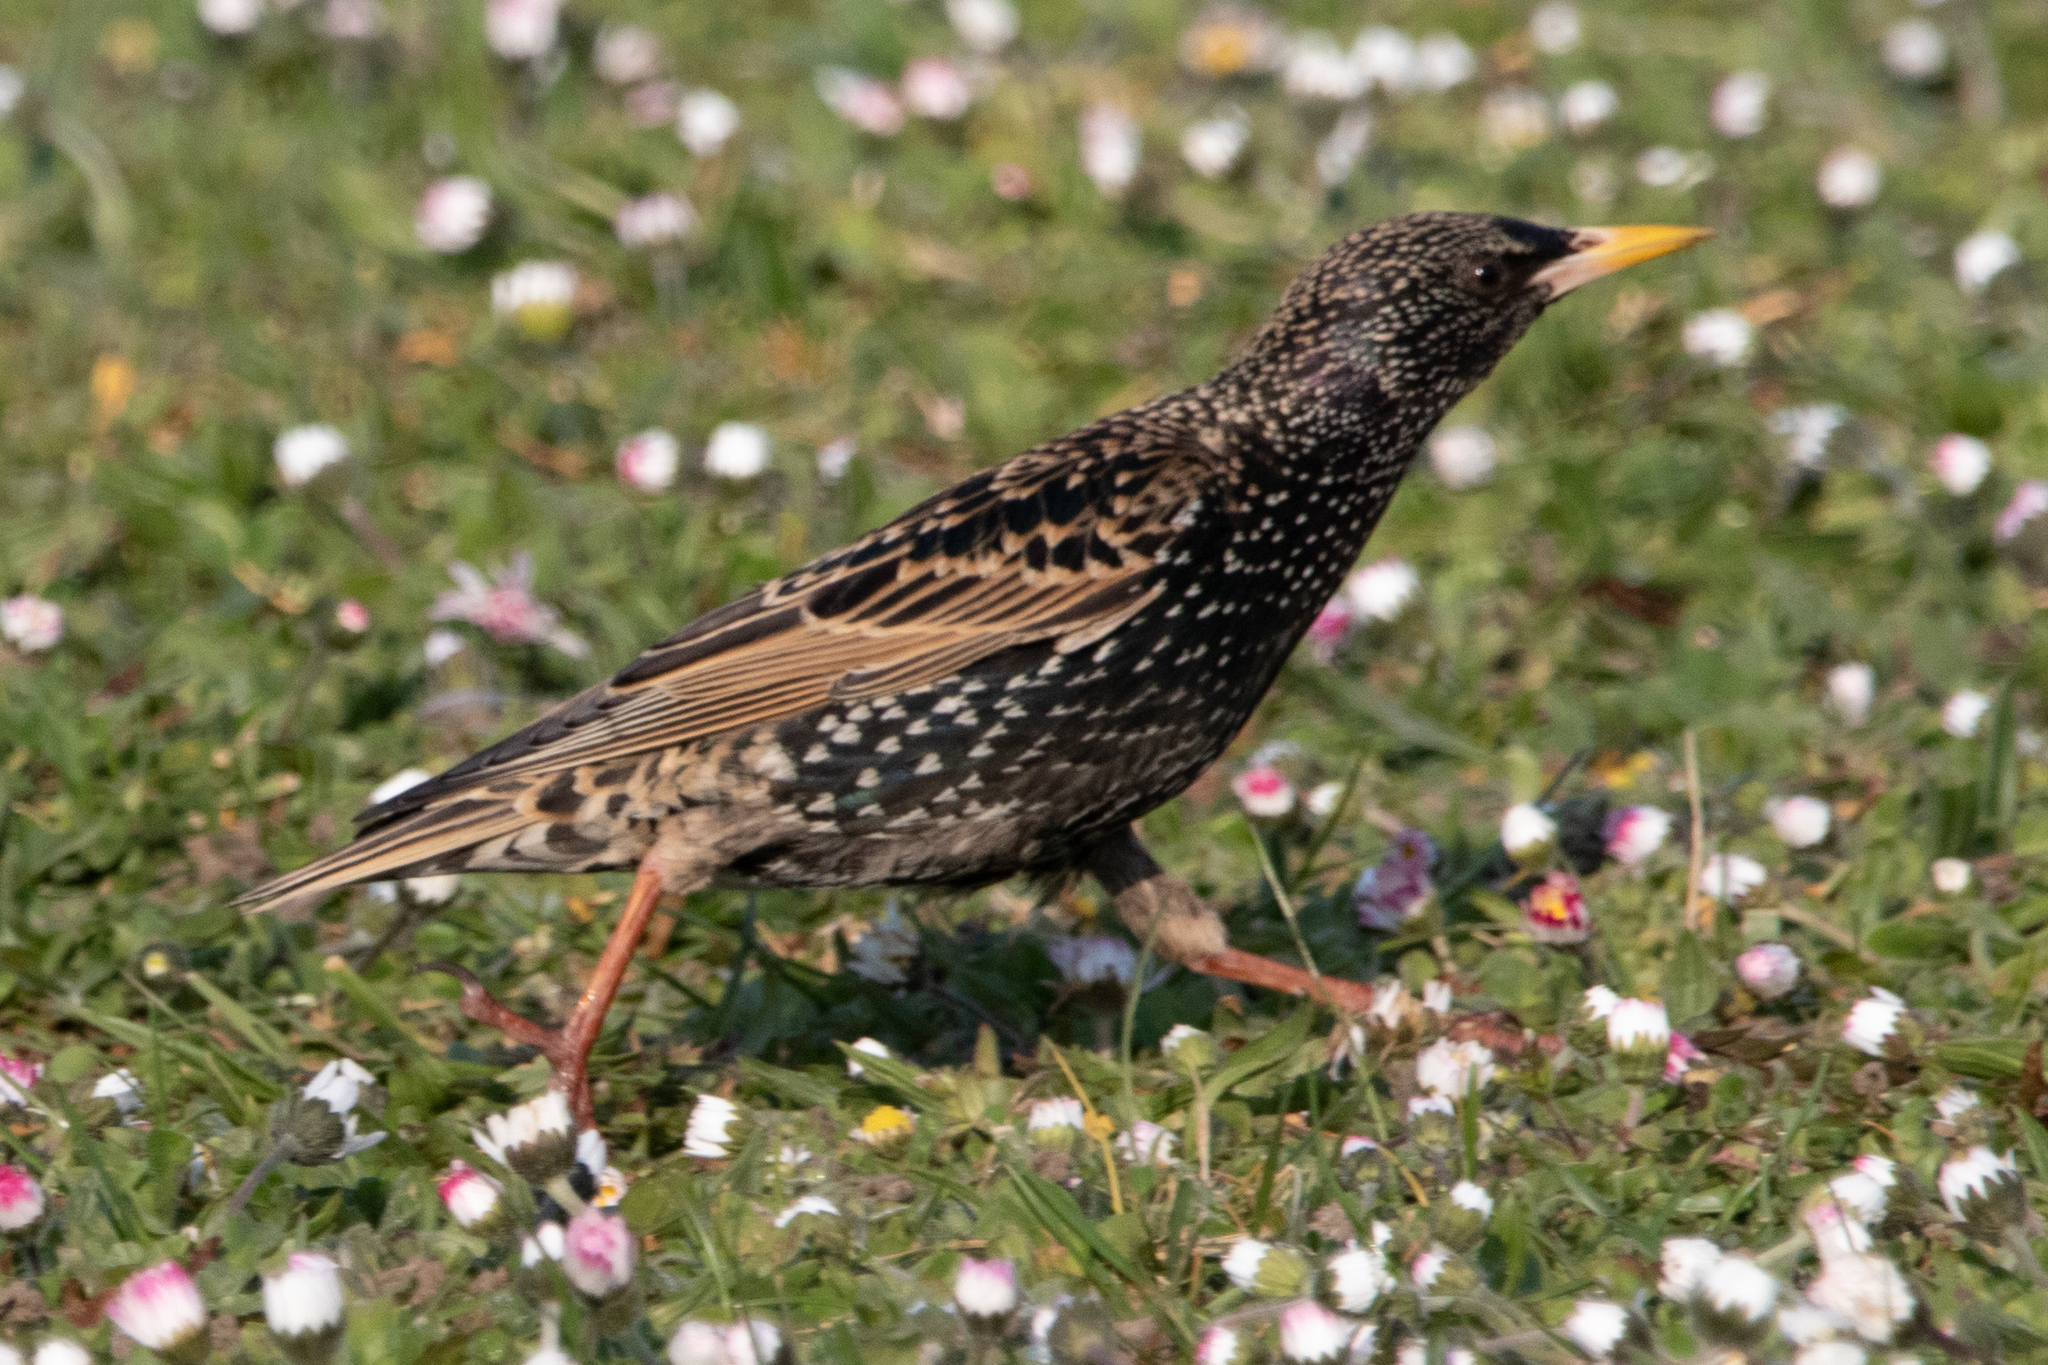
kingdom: Animalia
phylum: Chordata
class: Aves
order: Passeriformes
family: Sturnidae
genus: Sturnus
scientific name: Sturnus vulgaris
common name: Common starling
